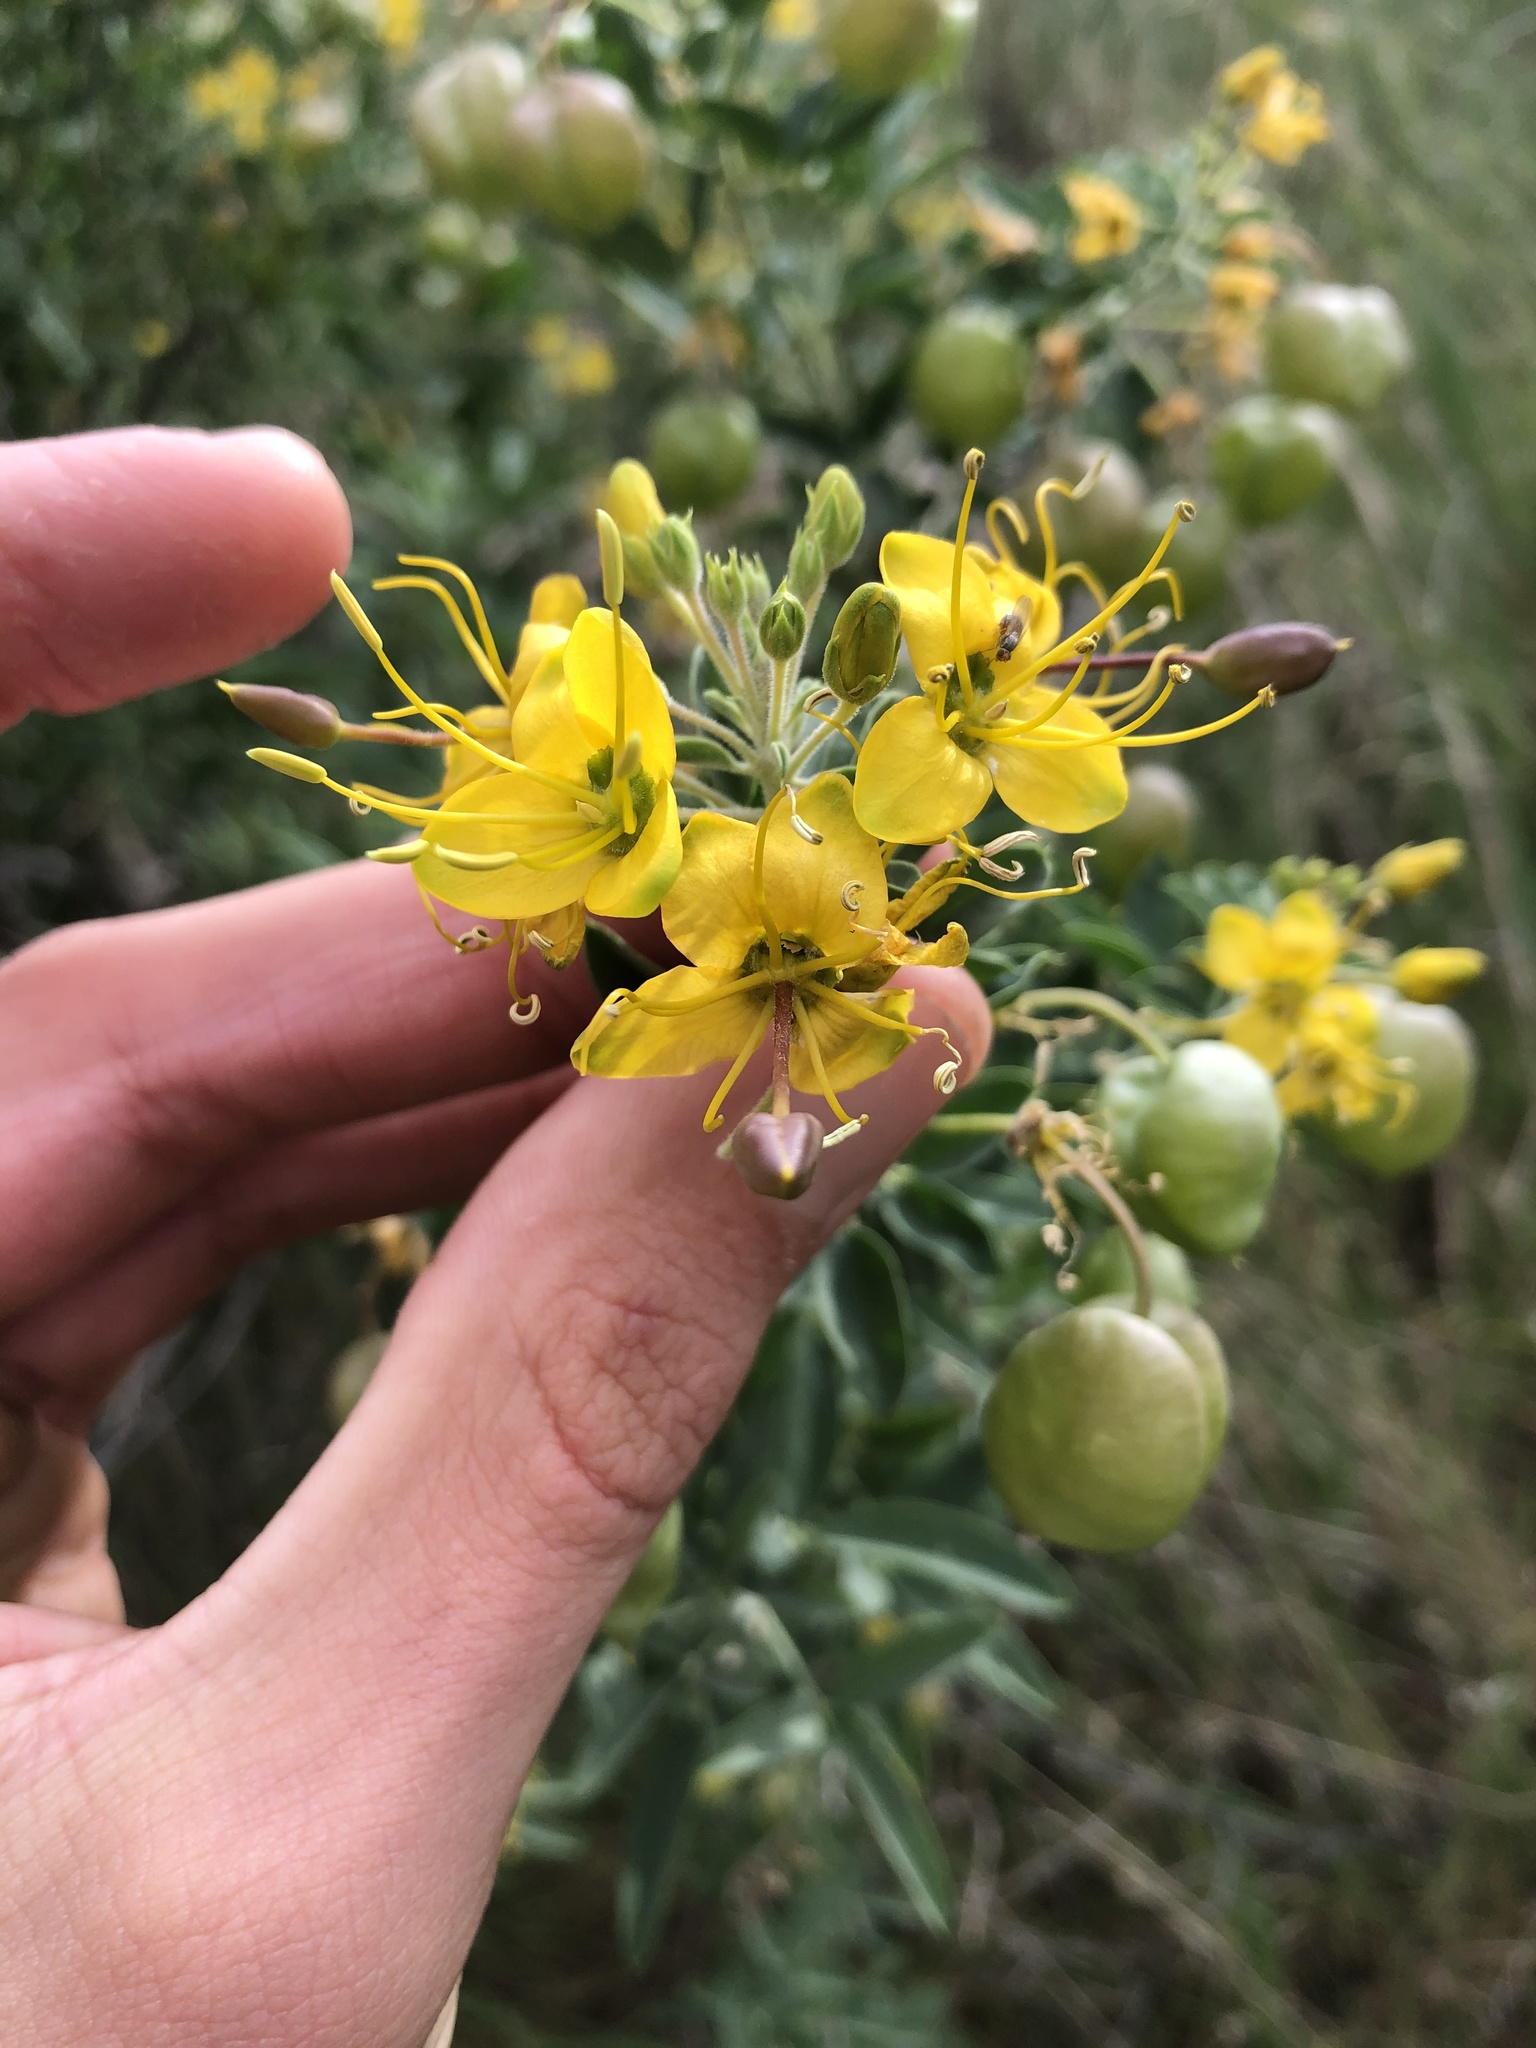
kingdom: Plantae
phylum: Tracheophyta
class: Magnoliopsida
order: Brassicales
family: Cleomaceae
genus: Cleomella
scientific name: Cleomella arborea
